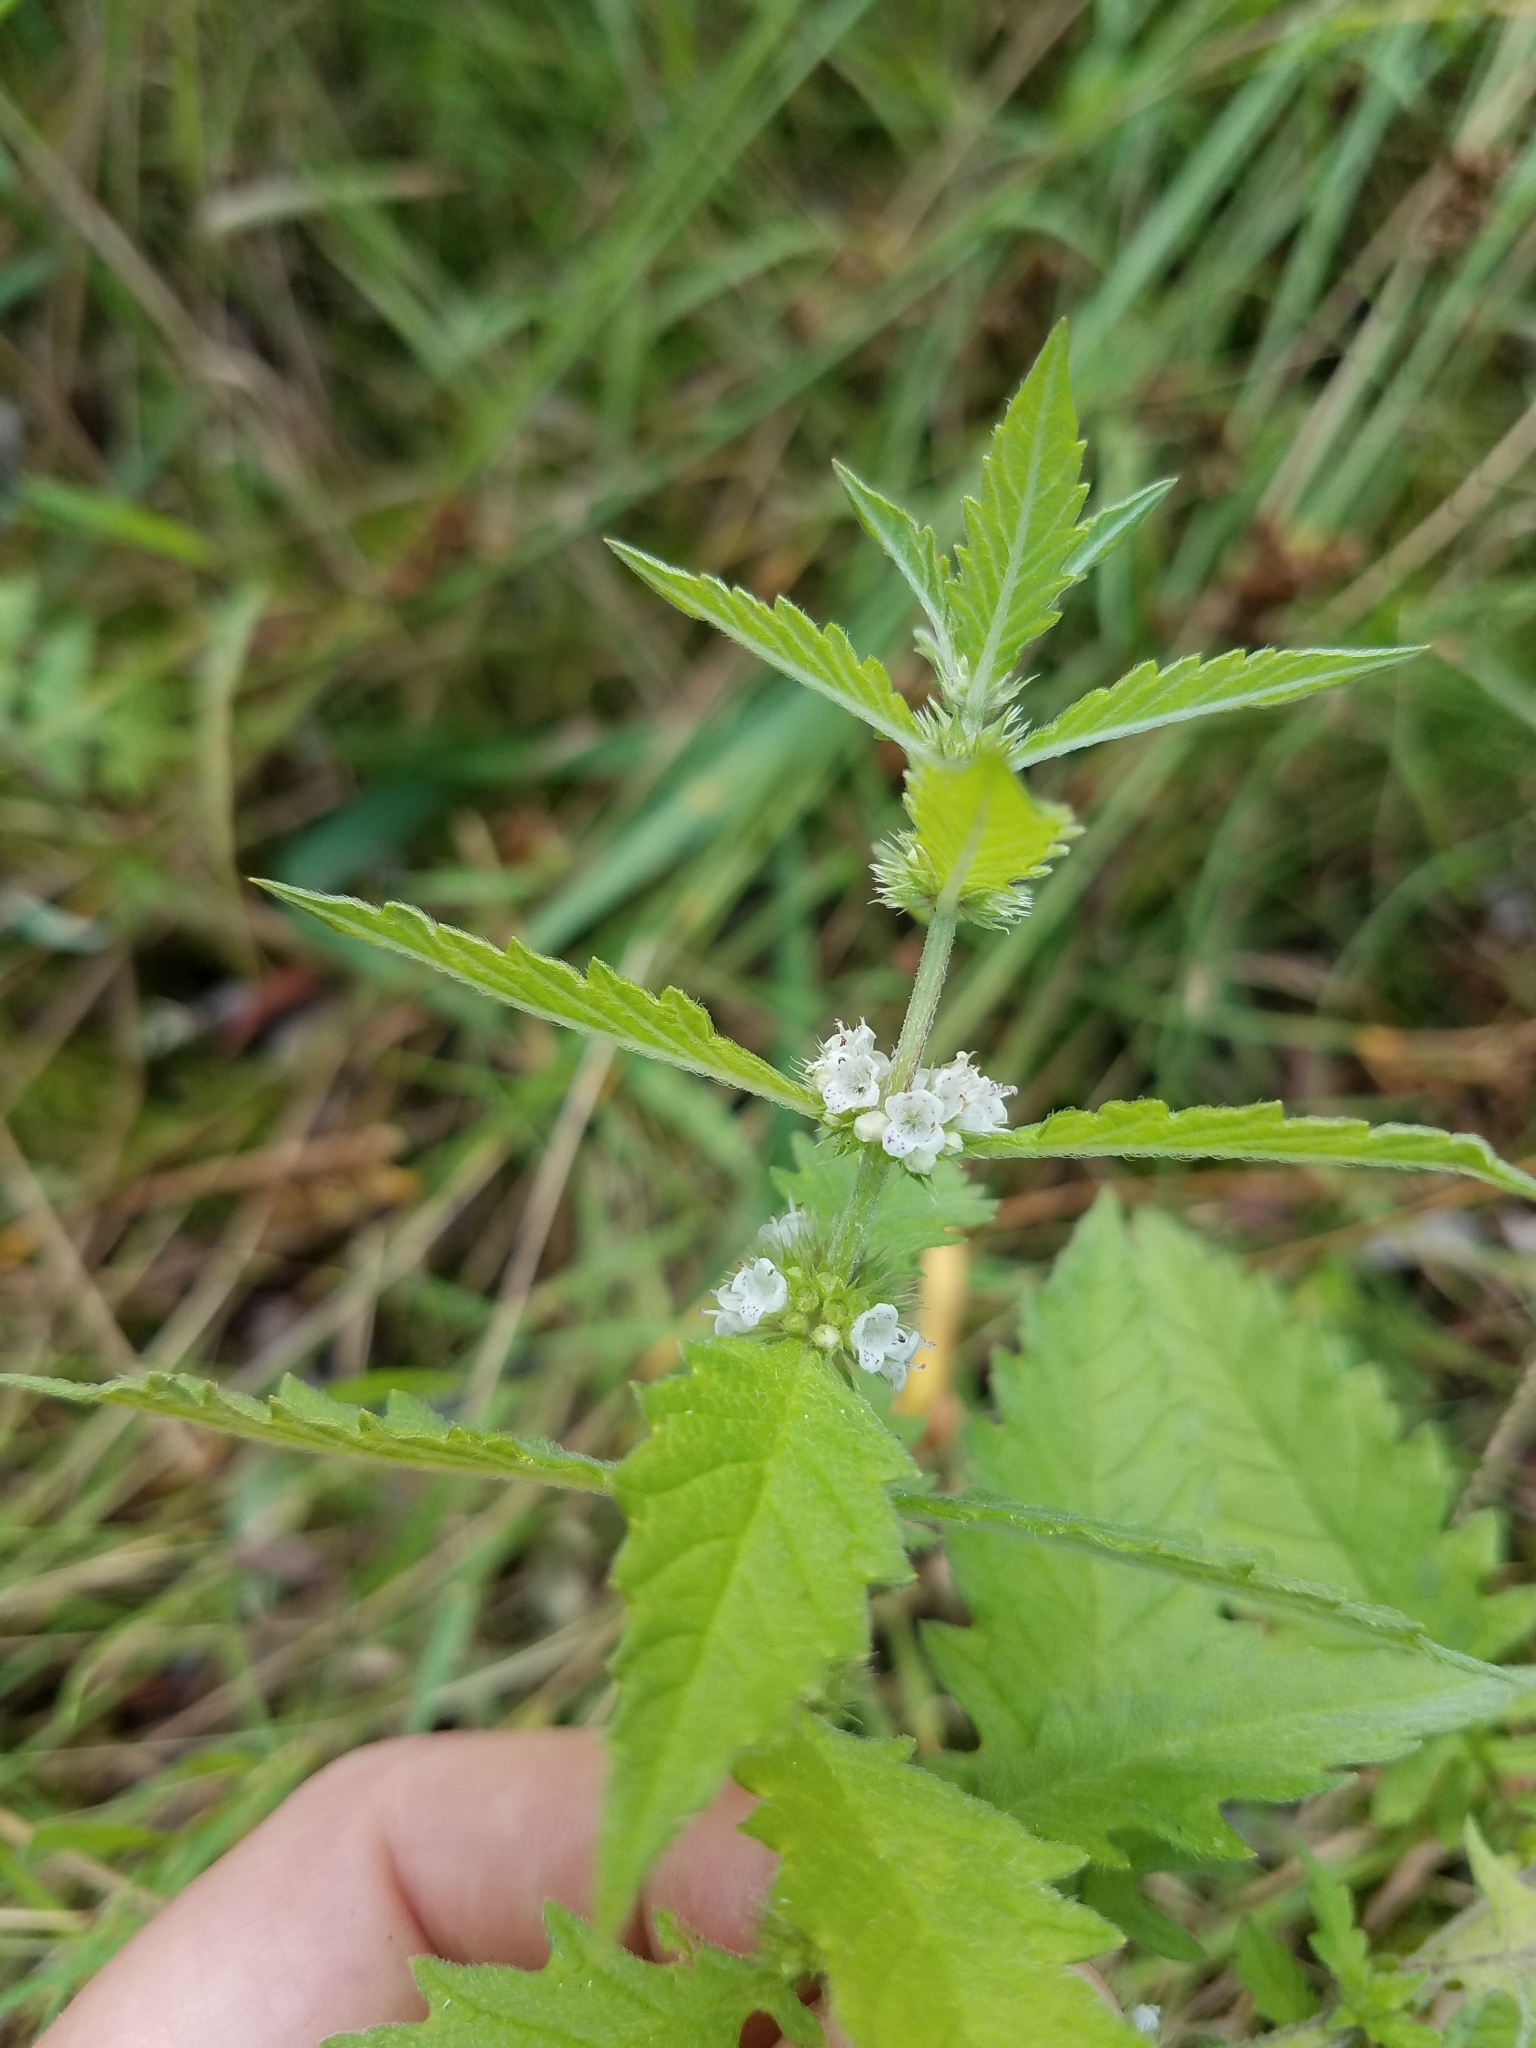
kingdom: Plantae
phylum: Tracheophyta
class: Magnoliopsida
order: Lamiales
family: Lamiaceae
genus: Lycopus
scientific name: Lycopus europaeus
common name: European bugleweed
